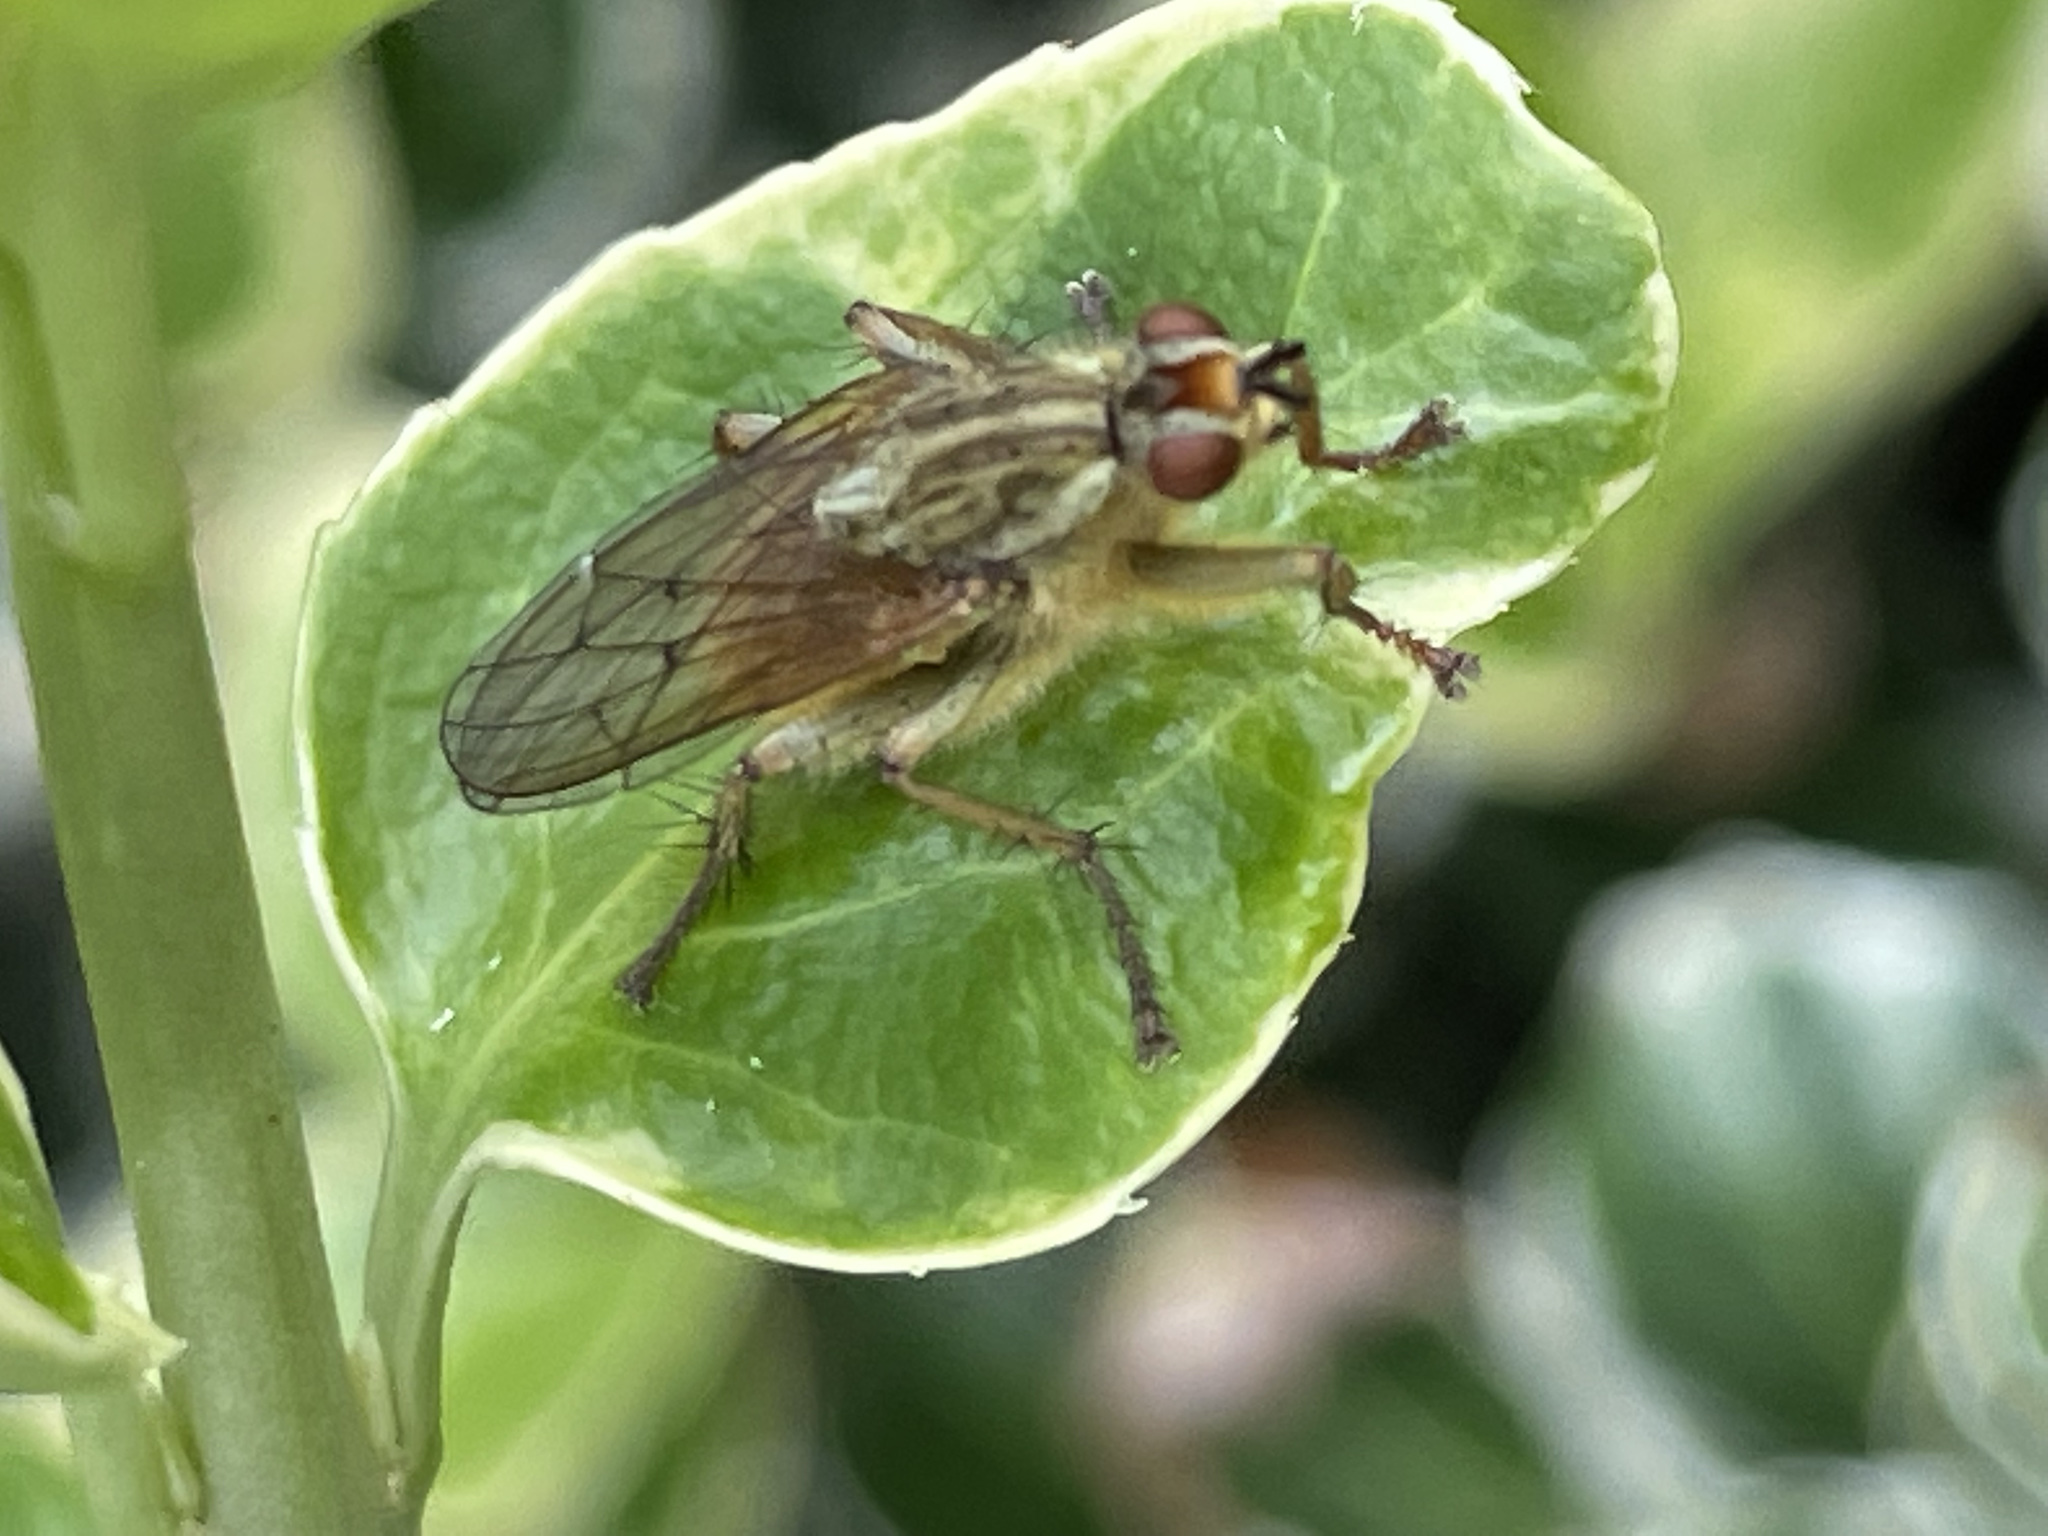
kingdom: Animalia
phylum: Arthropoda
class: Insecta
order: Diptera
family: Scathophagidae
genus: Scathophaga
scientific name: Scathophaga stercoraria
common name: Yellow dung fly
